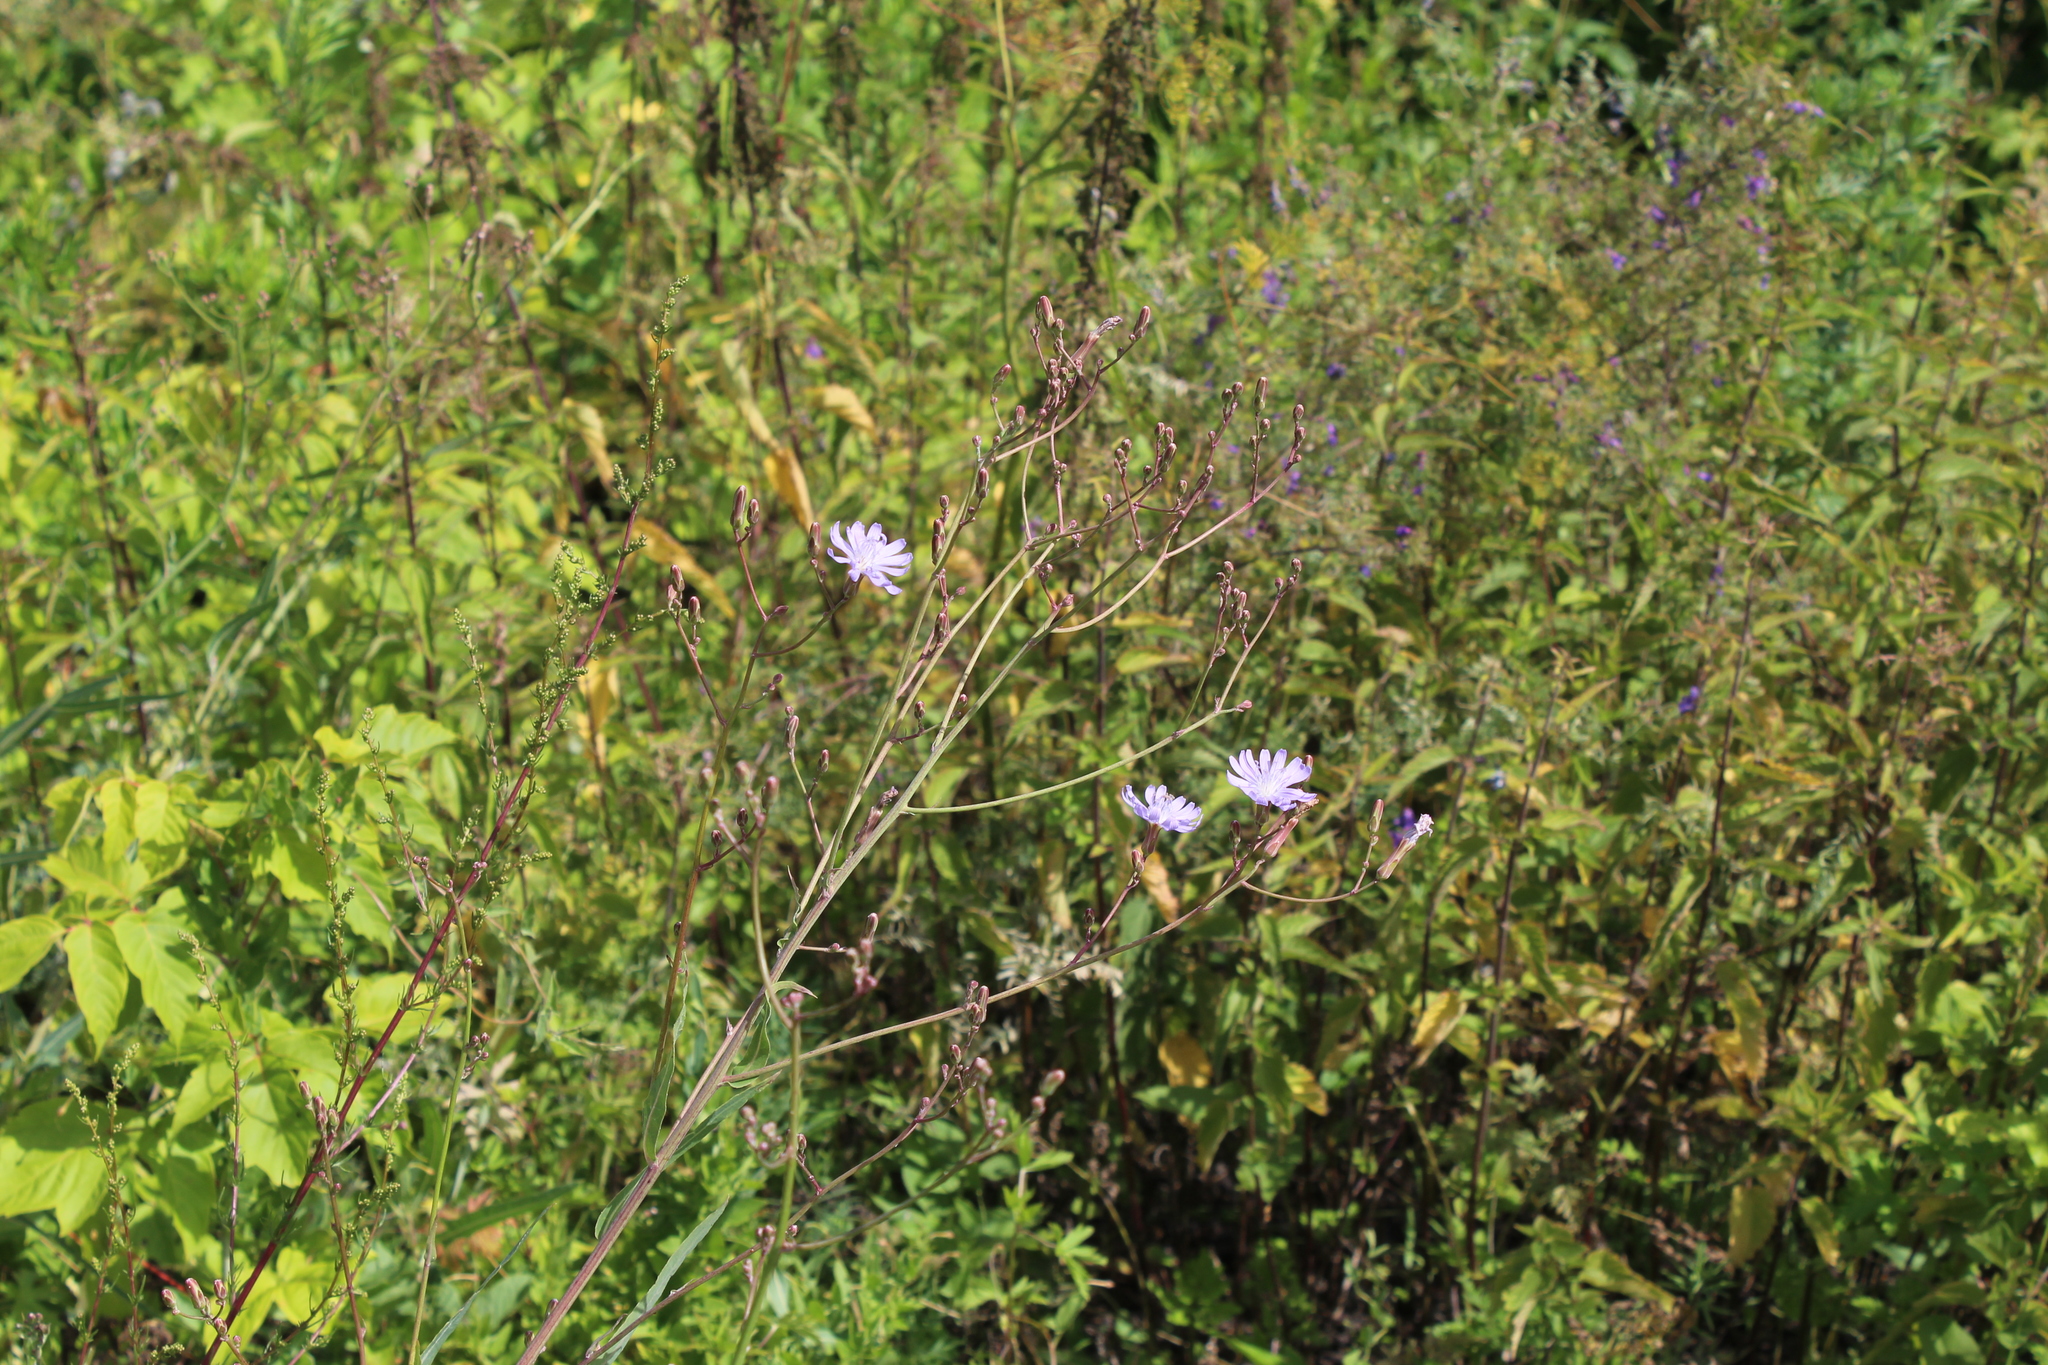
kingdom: Plantae
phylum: Tracheophyta
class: Magnoliopsida
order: Asterales
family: Asteraceae
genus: Lactuca
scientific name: Lactuca tatarica
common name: Blue lettuce
